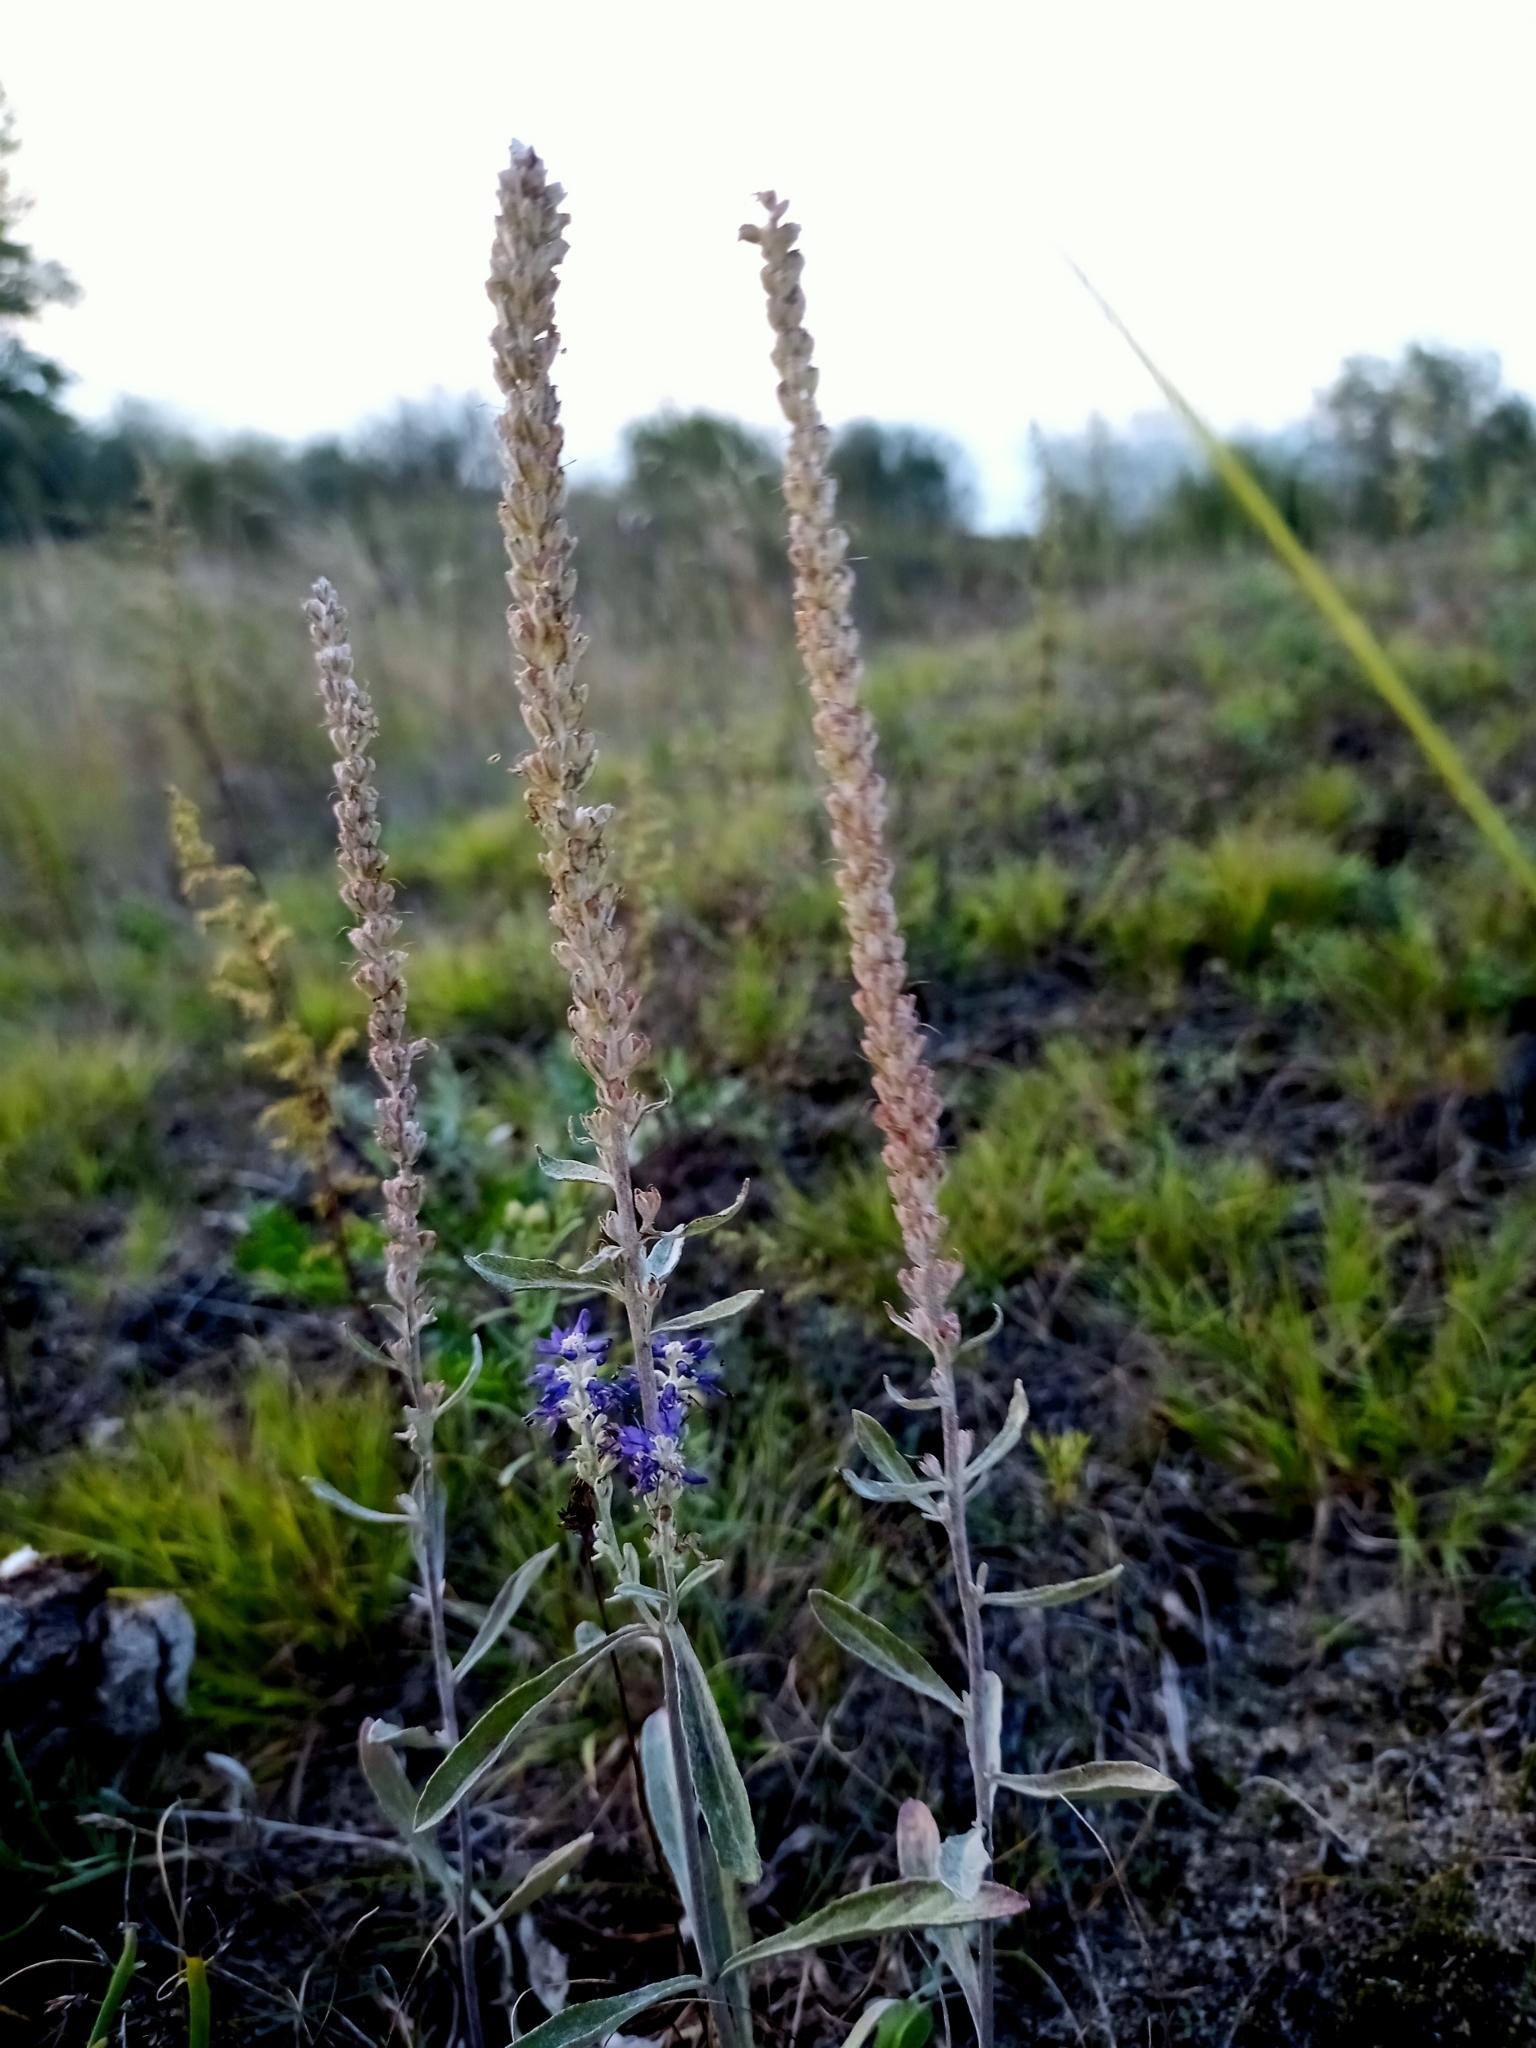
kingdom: Plantae
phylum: Tracheophyta
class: Magnoliopsida
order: Lamiales
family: Plantaginaceae
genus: Veronica
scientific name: Veronica incana
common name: Silver speedwell
